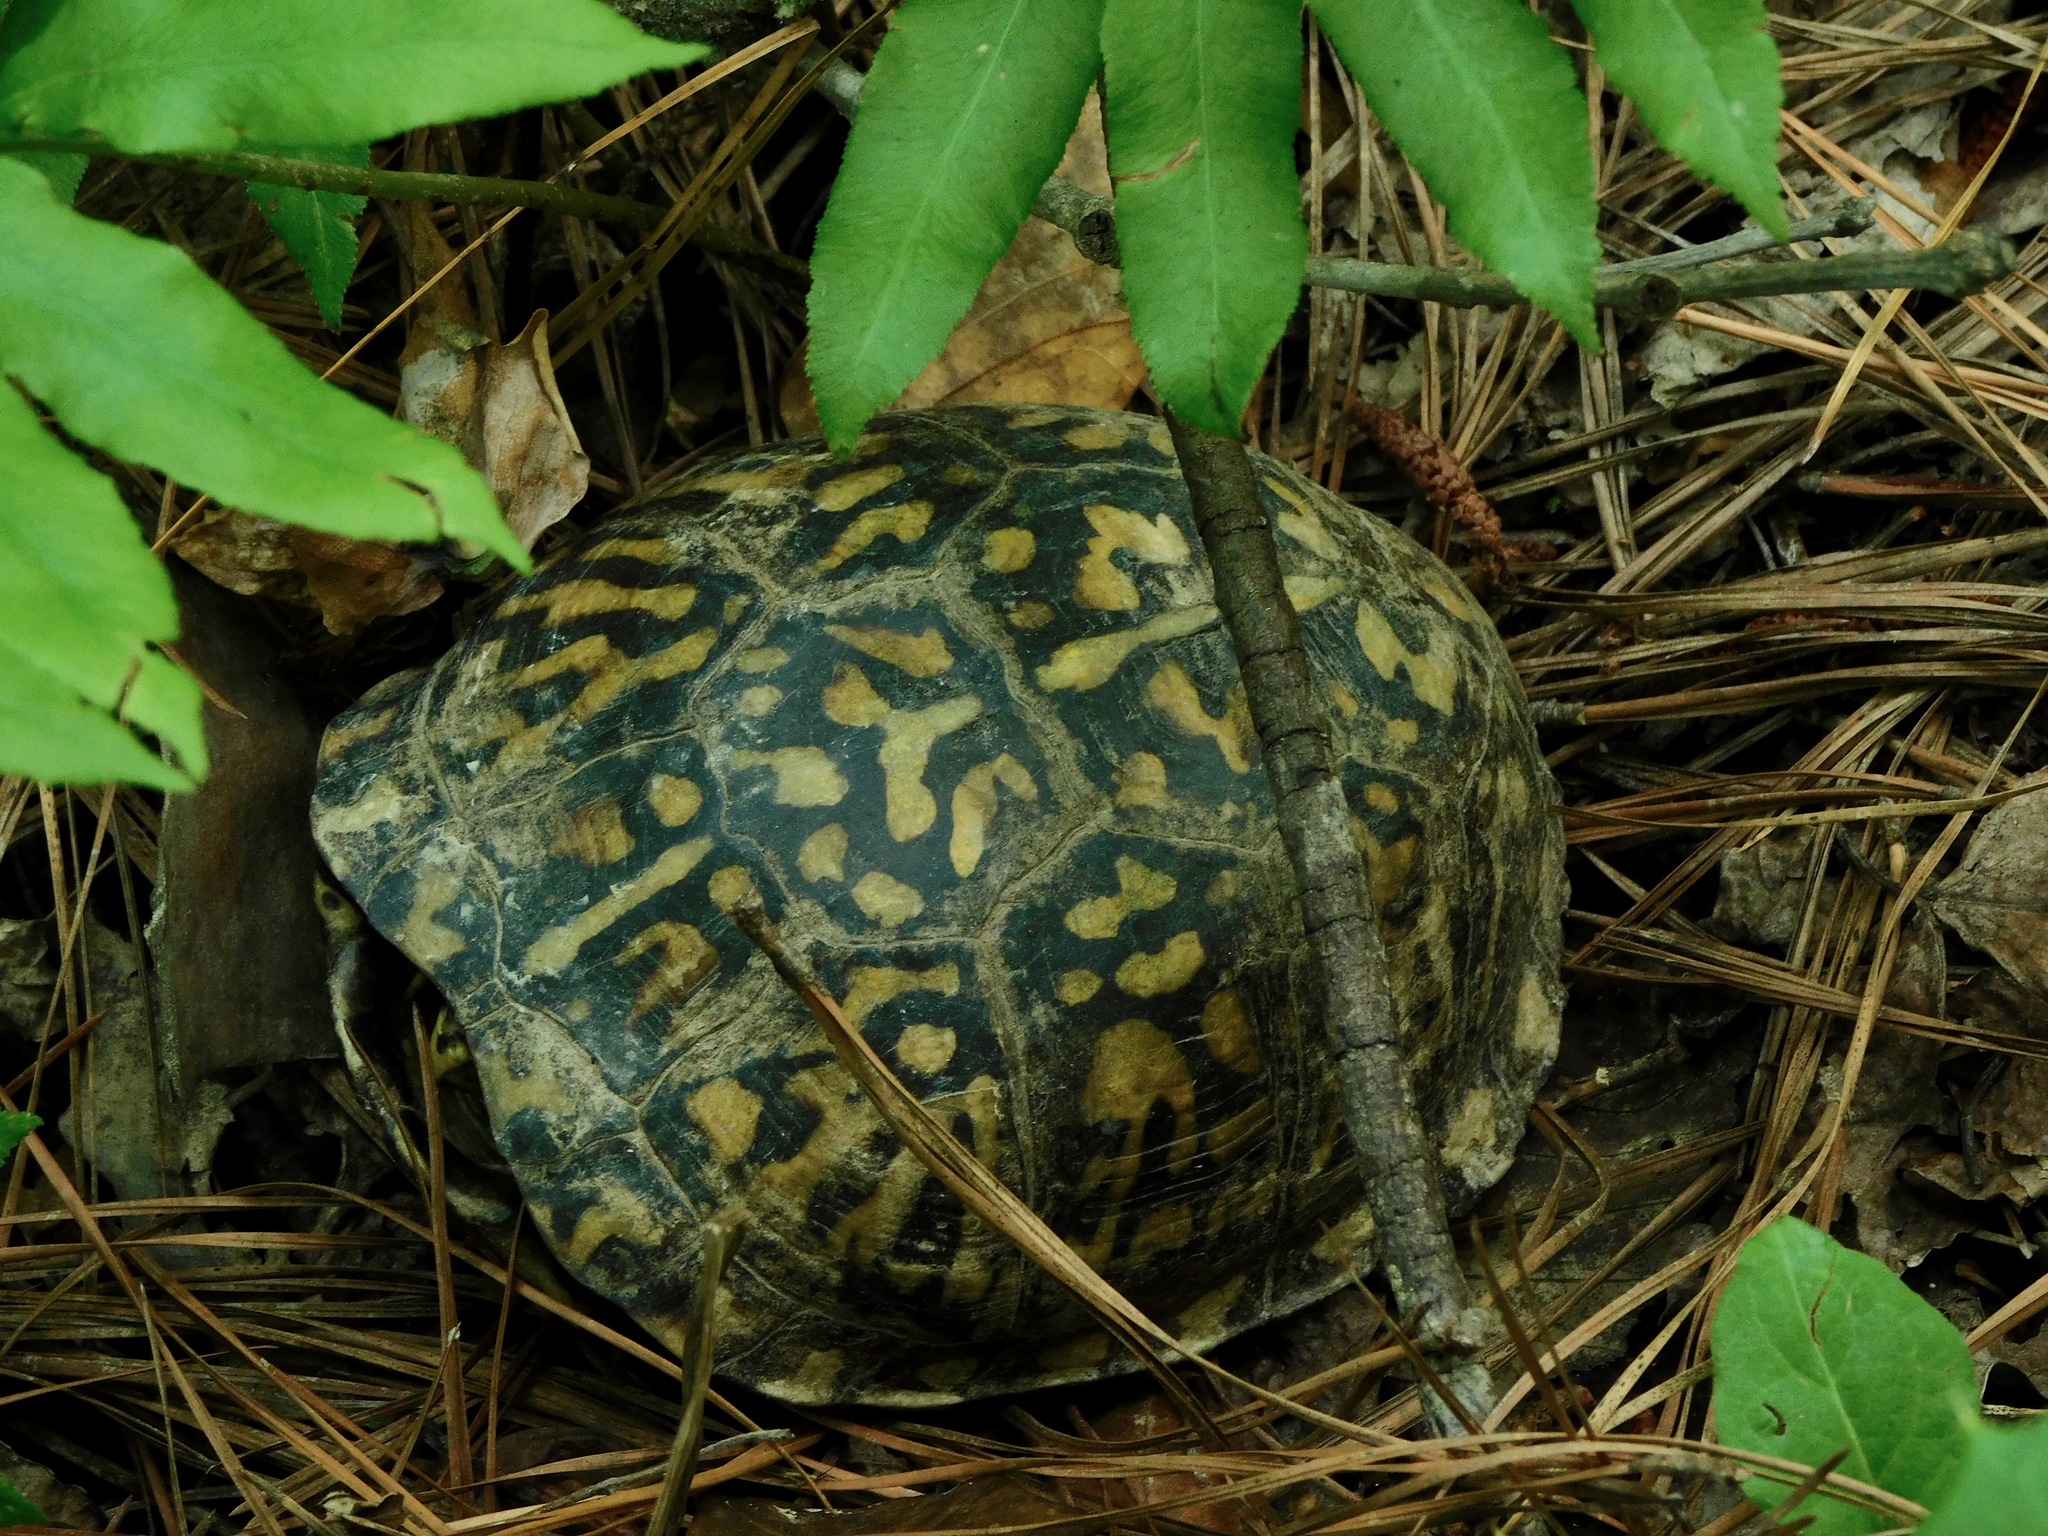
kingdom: Animalia
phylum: Chordata
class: Testudines
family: Emydidae
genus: Terrapene
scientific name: Terrapene carolina
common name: Common box turtle
